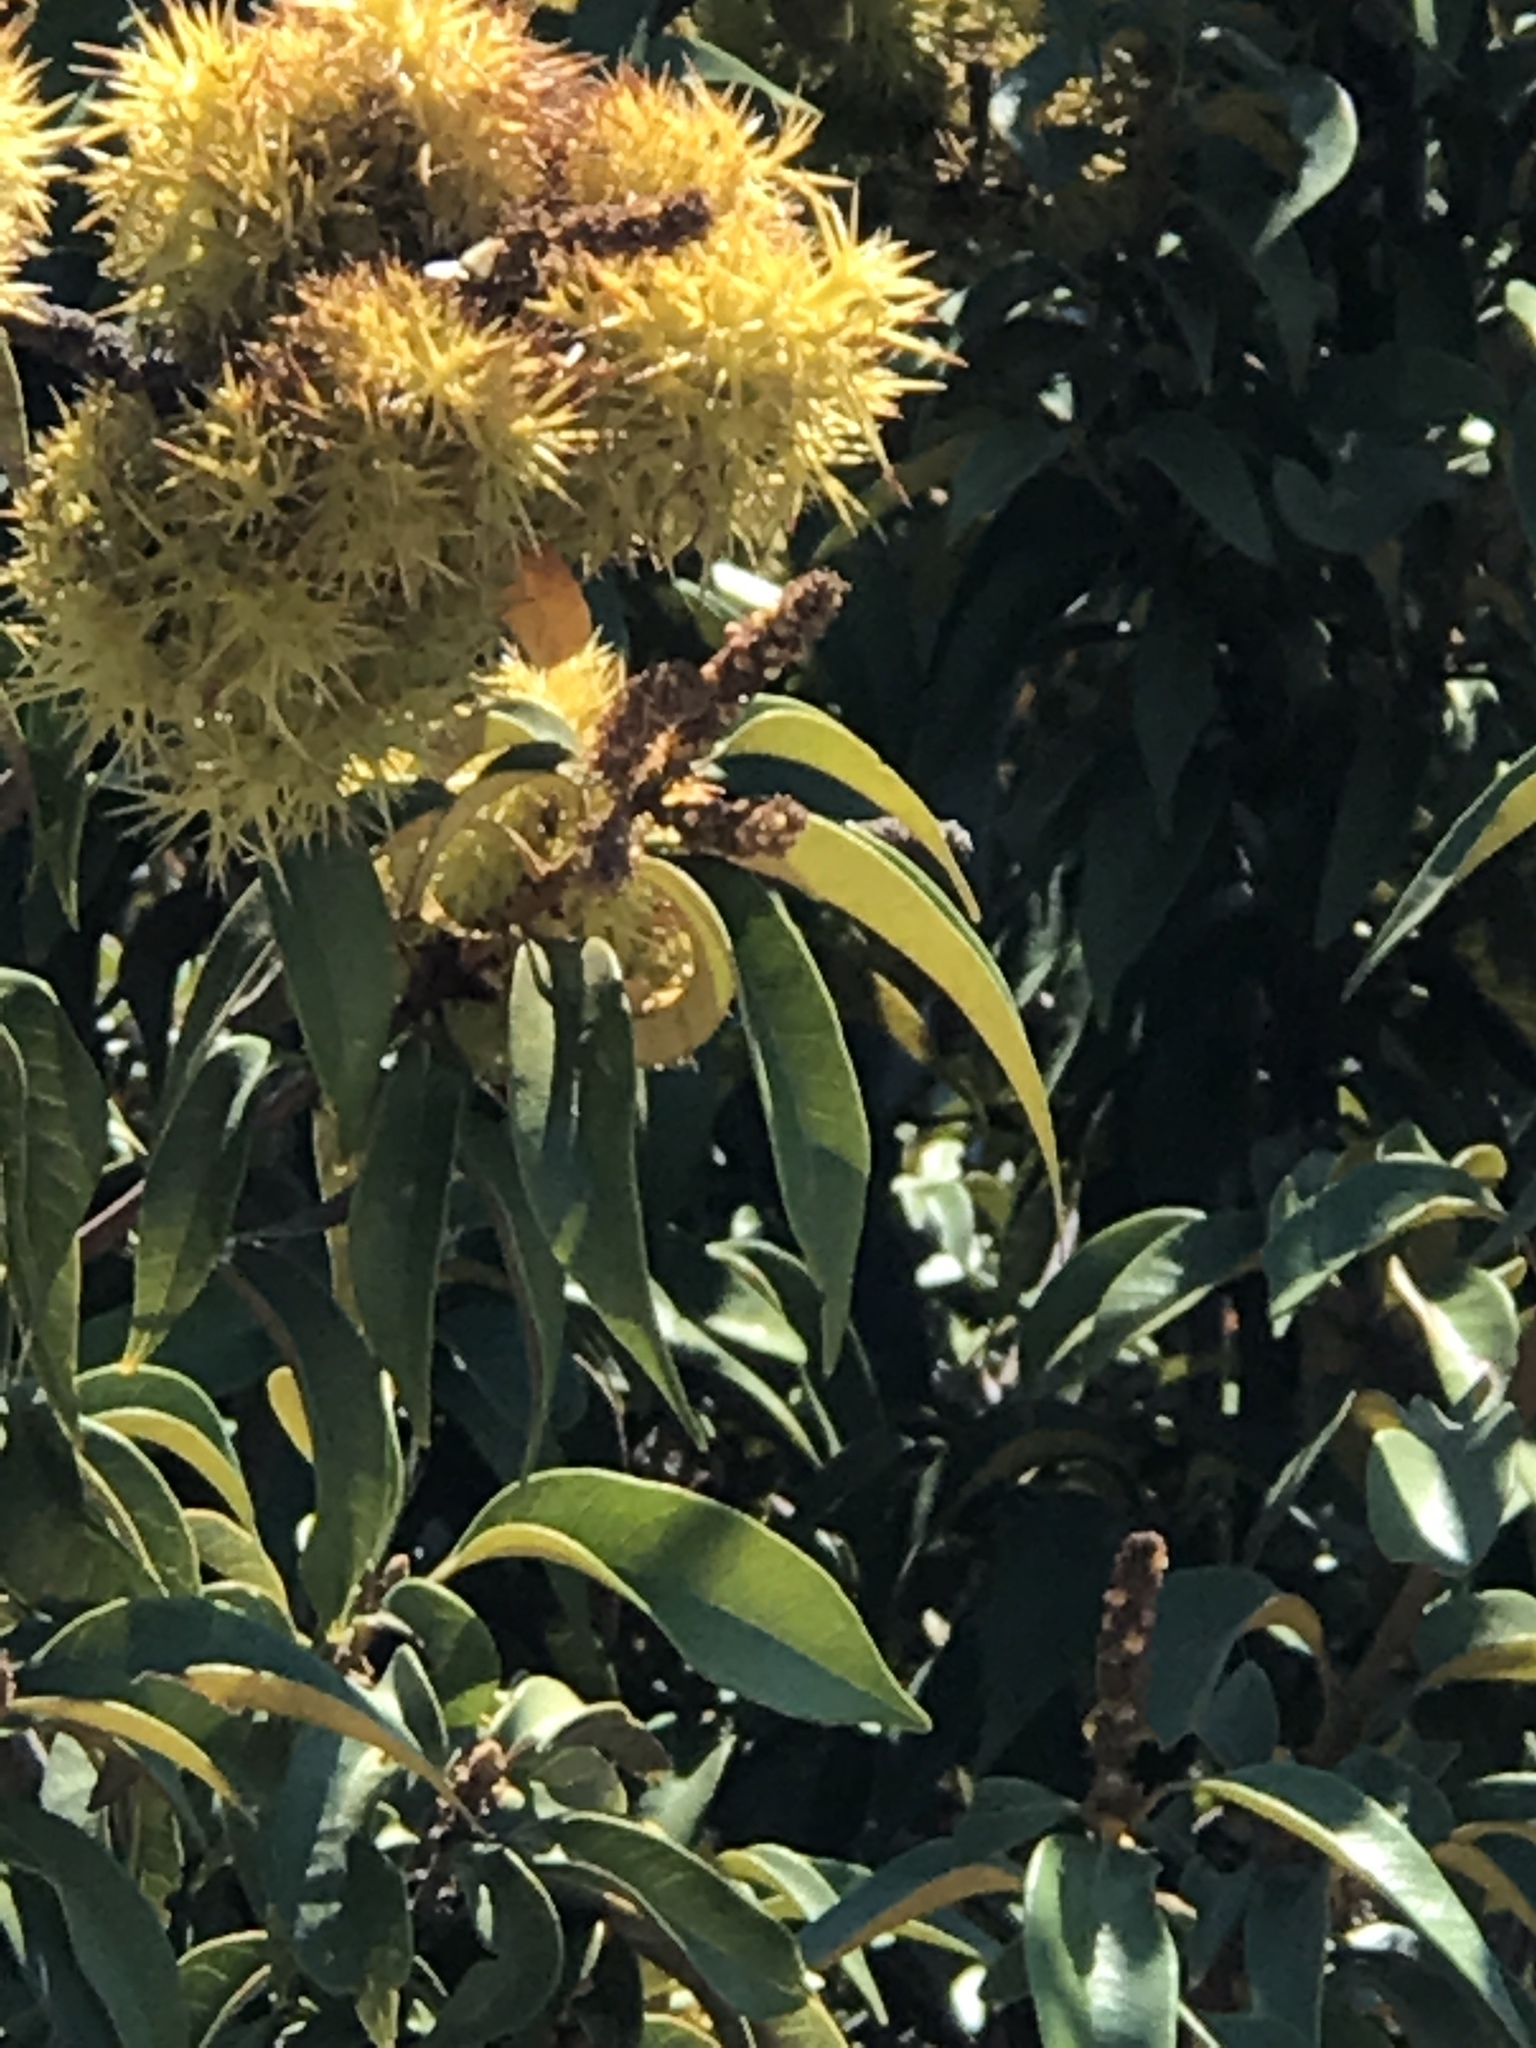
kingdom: Plantae
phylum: Tracheophyta
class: Magnoliopsida
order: Fagales
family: Fagaceae
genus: Chrysolepis
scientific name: Chrysolepis chrysophylla
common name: Giant chinquapin
